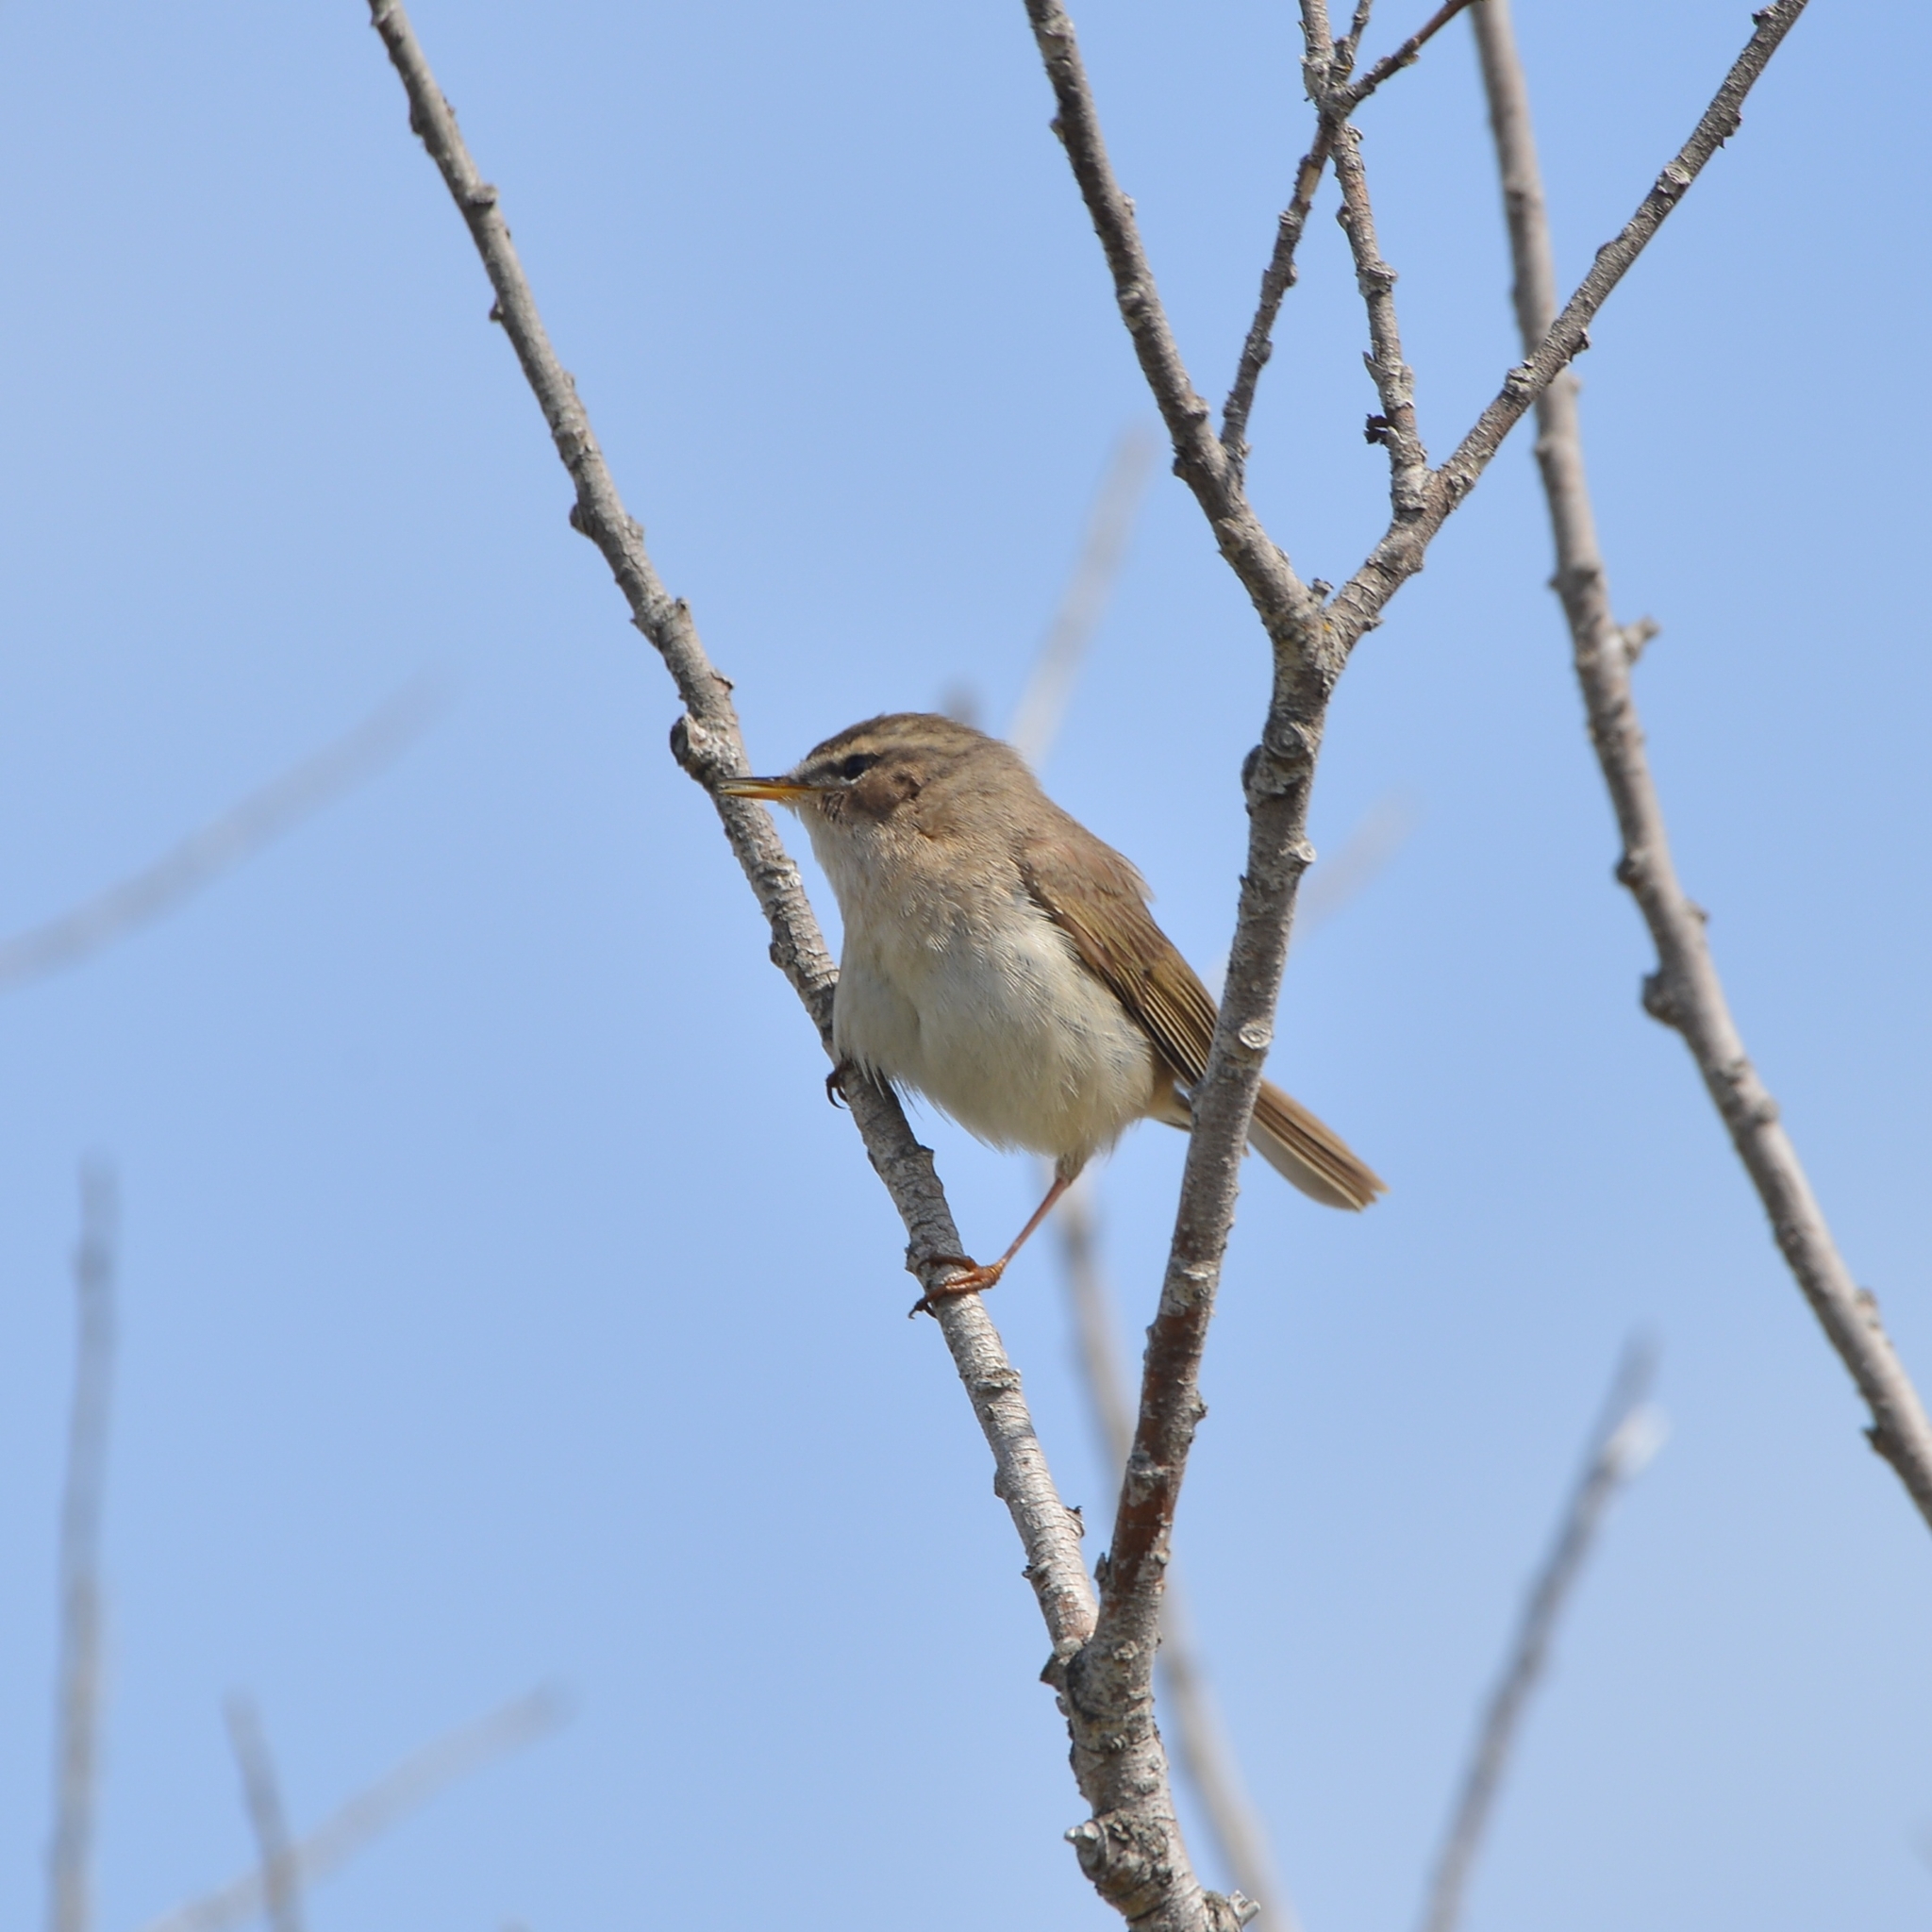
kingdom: Animalia
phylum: Chordata
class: Aves
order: Passeriformes
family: Phylloscopidae
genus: Phylloscopus
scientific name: Phylloscopus fuscatus
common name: Dusky warbler
